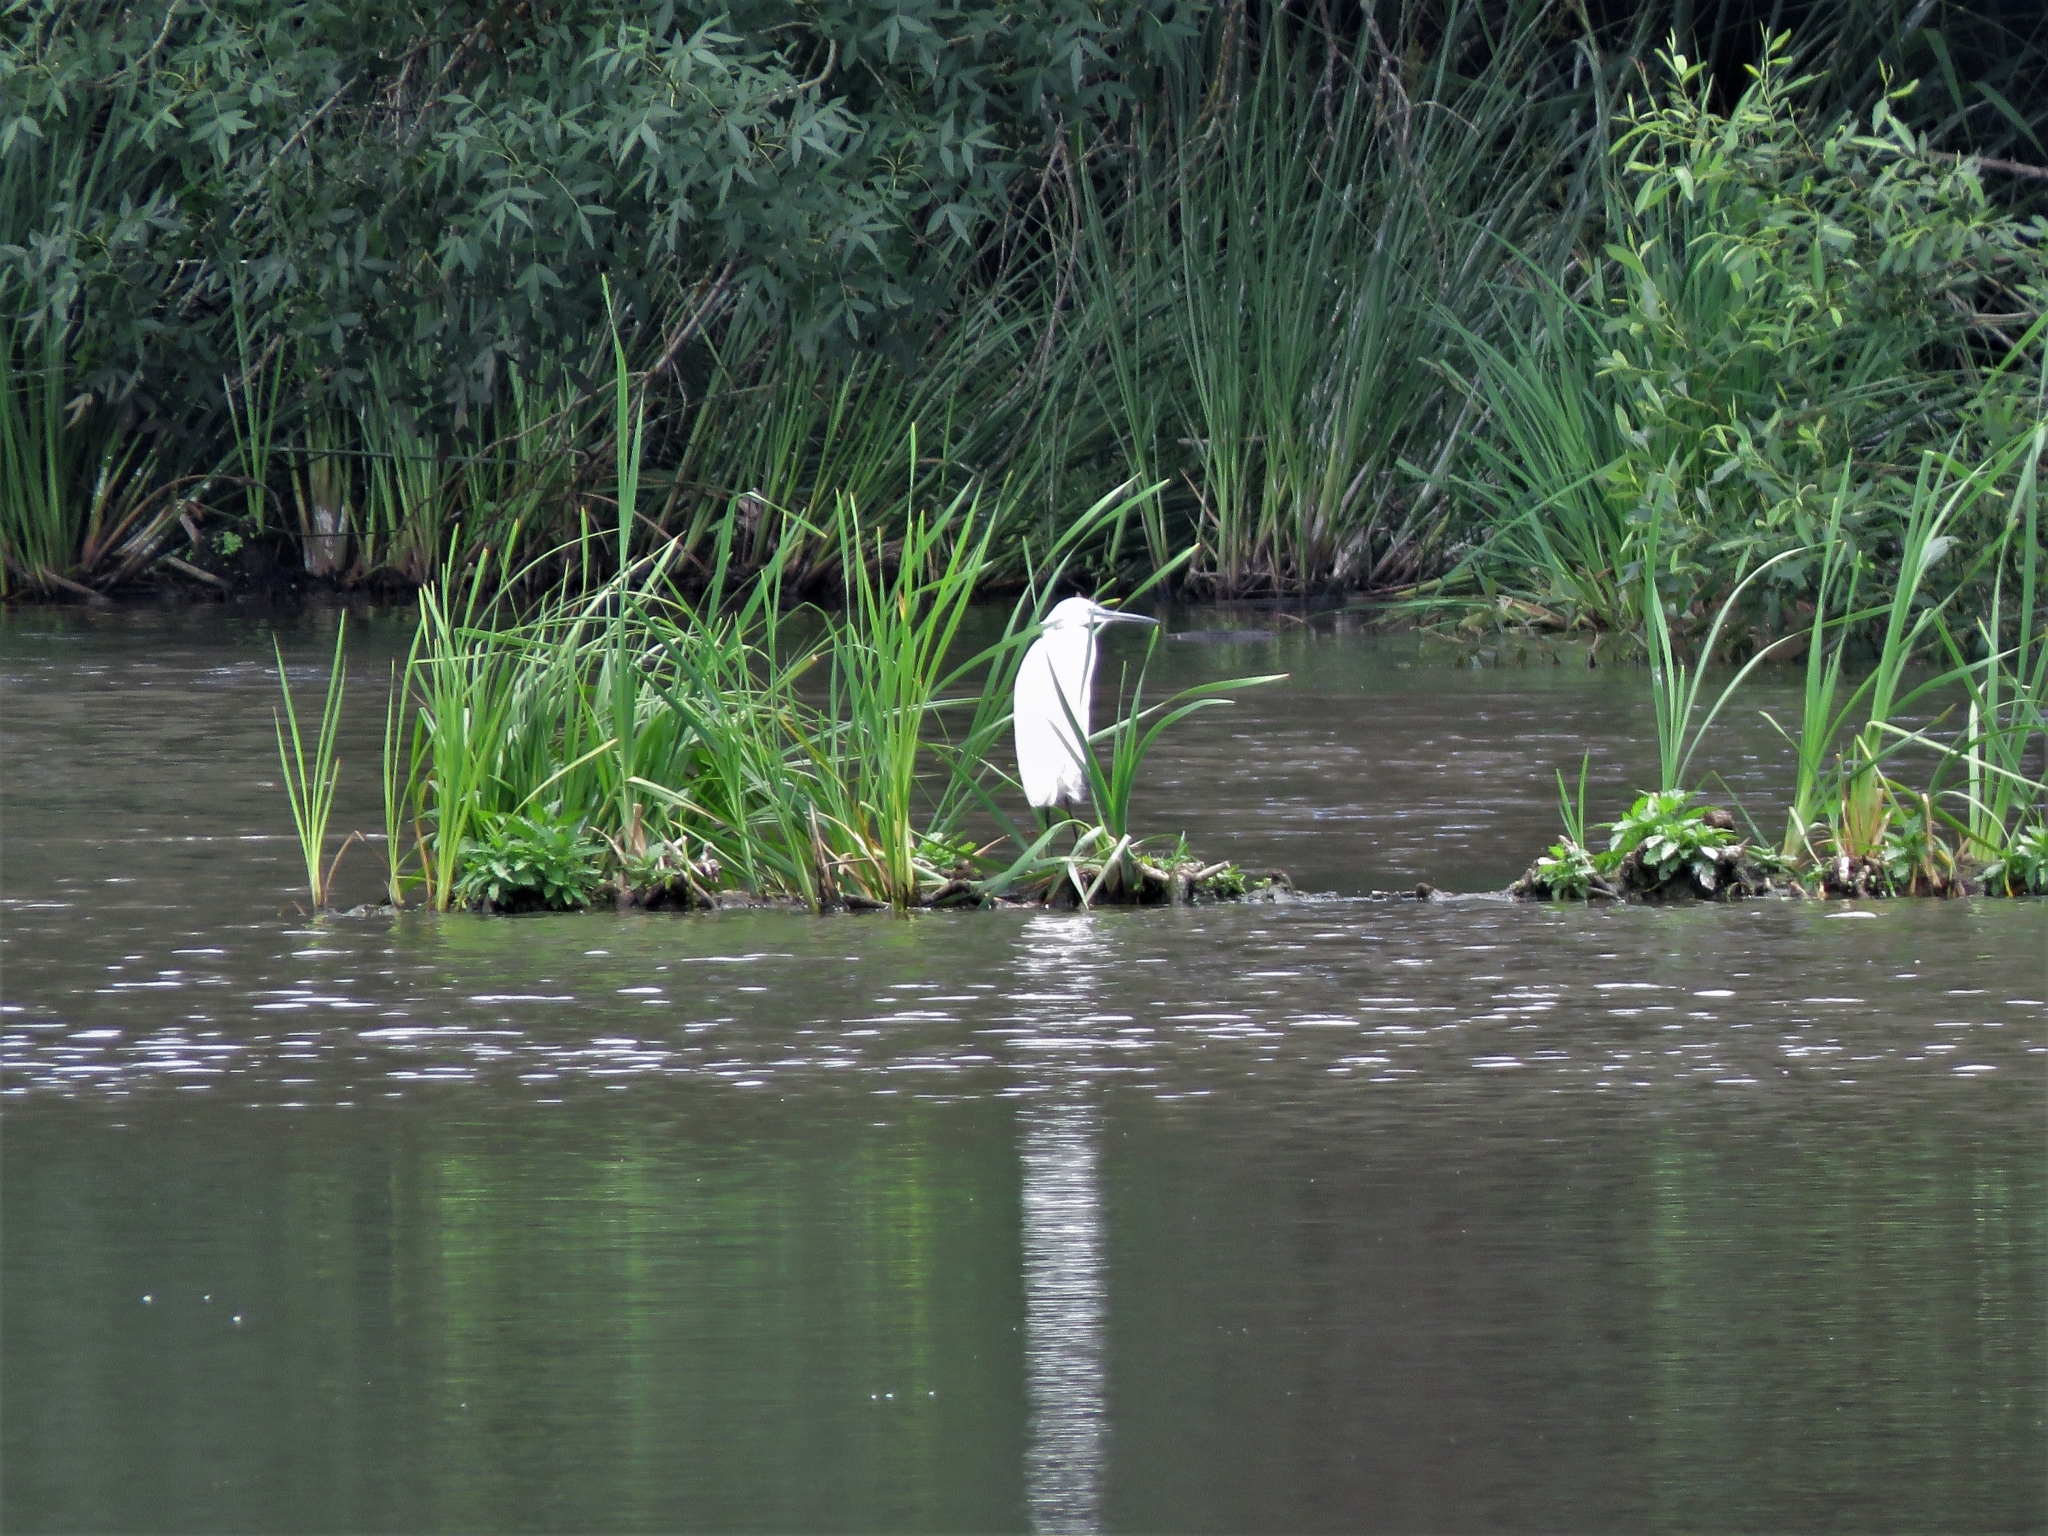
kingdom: Animalia
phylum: Chordata
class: Aves
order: Pelecaniformes
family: Ardeidae
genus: Egretta
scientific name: Egretta garzetta
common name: Little egret
